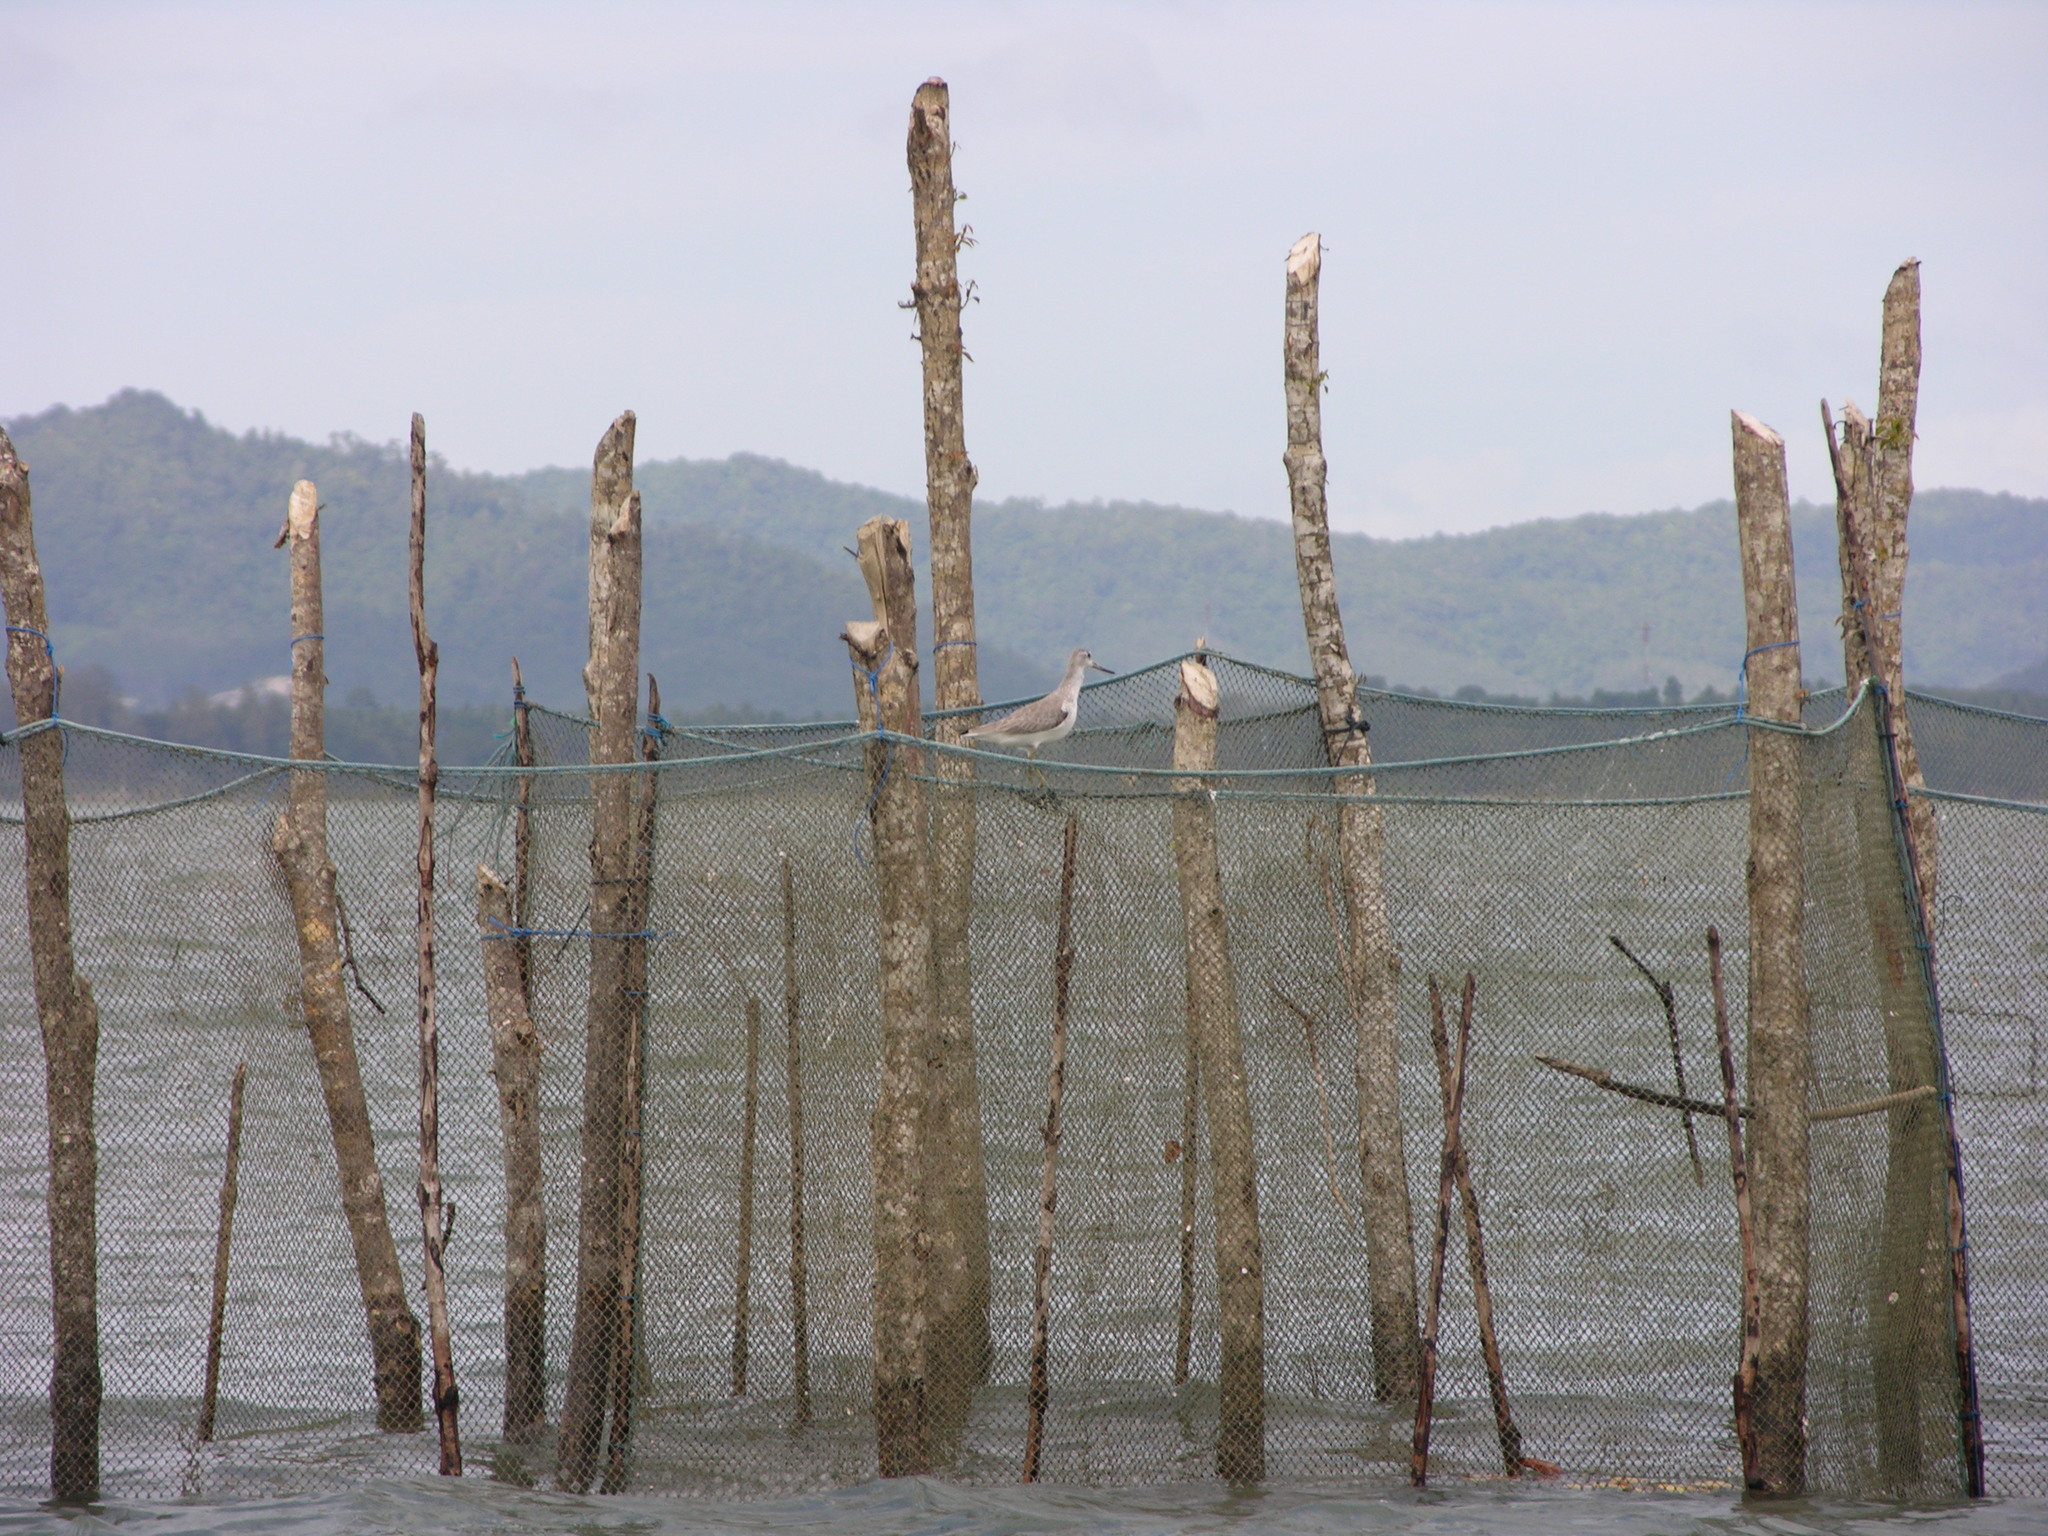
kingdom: Animalia
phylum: Chordata
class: Aves
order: Charadriiformes
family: Scolopacidae
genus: Tringa
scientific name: Tringa guttifer
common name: Nordmann's greenshank
